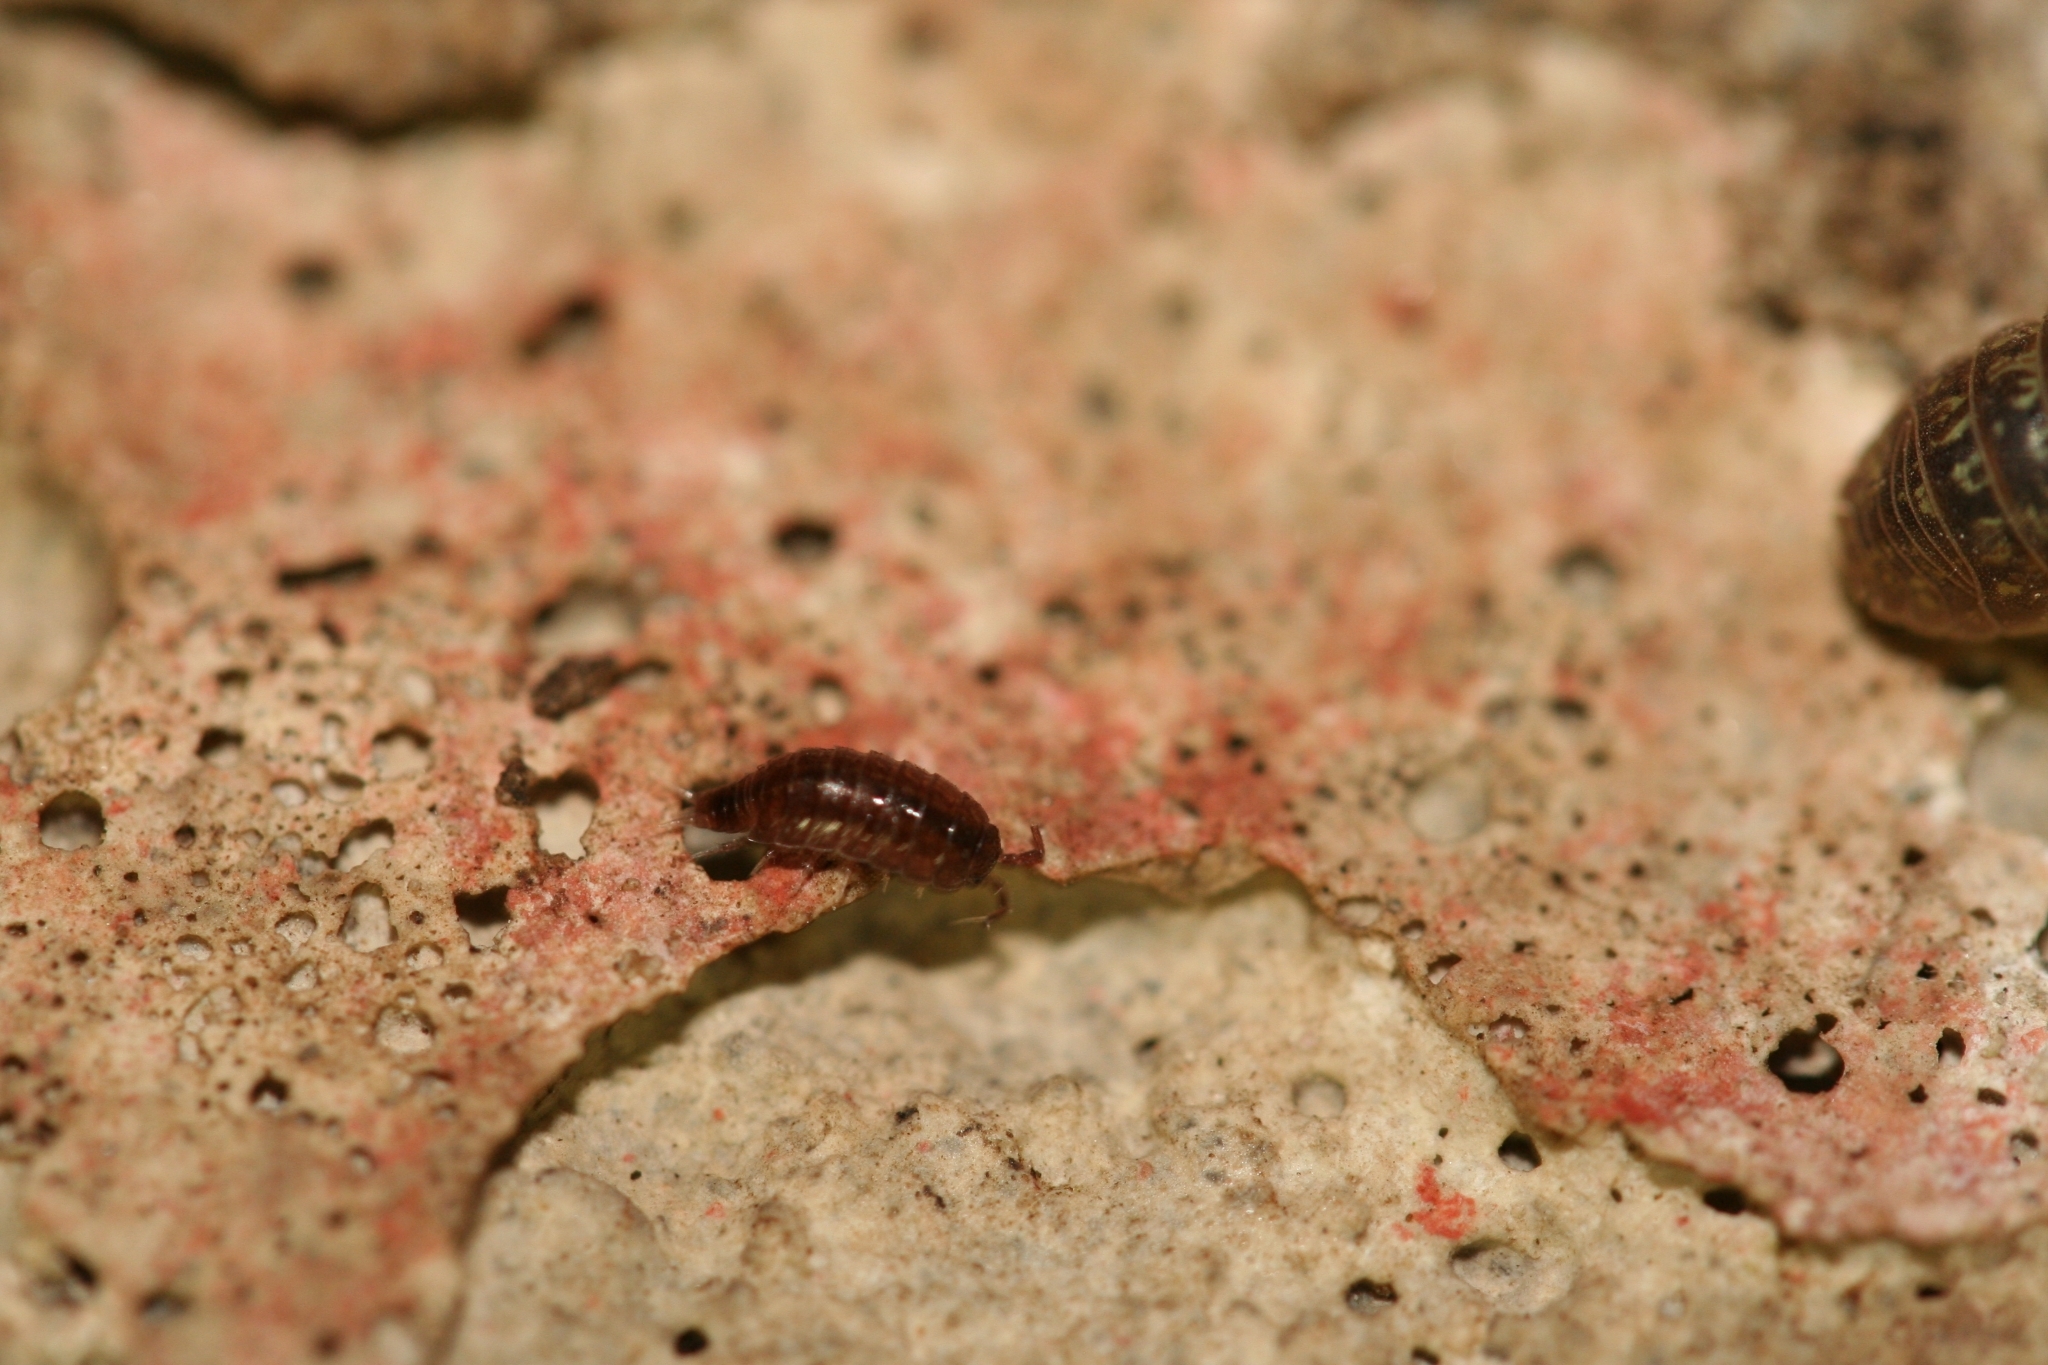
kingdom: Animalia
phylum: Arthropoda
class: Malacostraca
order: Isopoda
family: Trichoniscidae
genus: Hyloniscus
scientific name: Hyloniscus riparius
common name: Isopod
